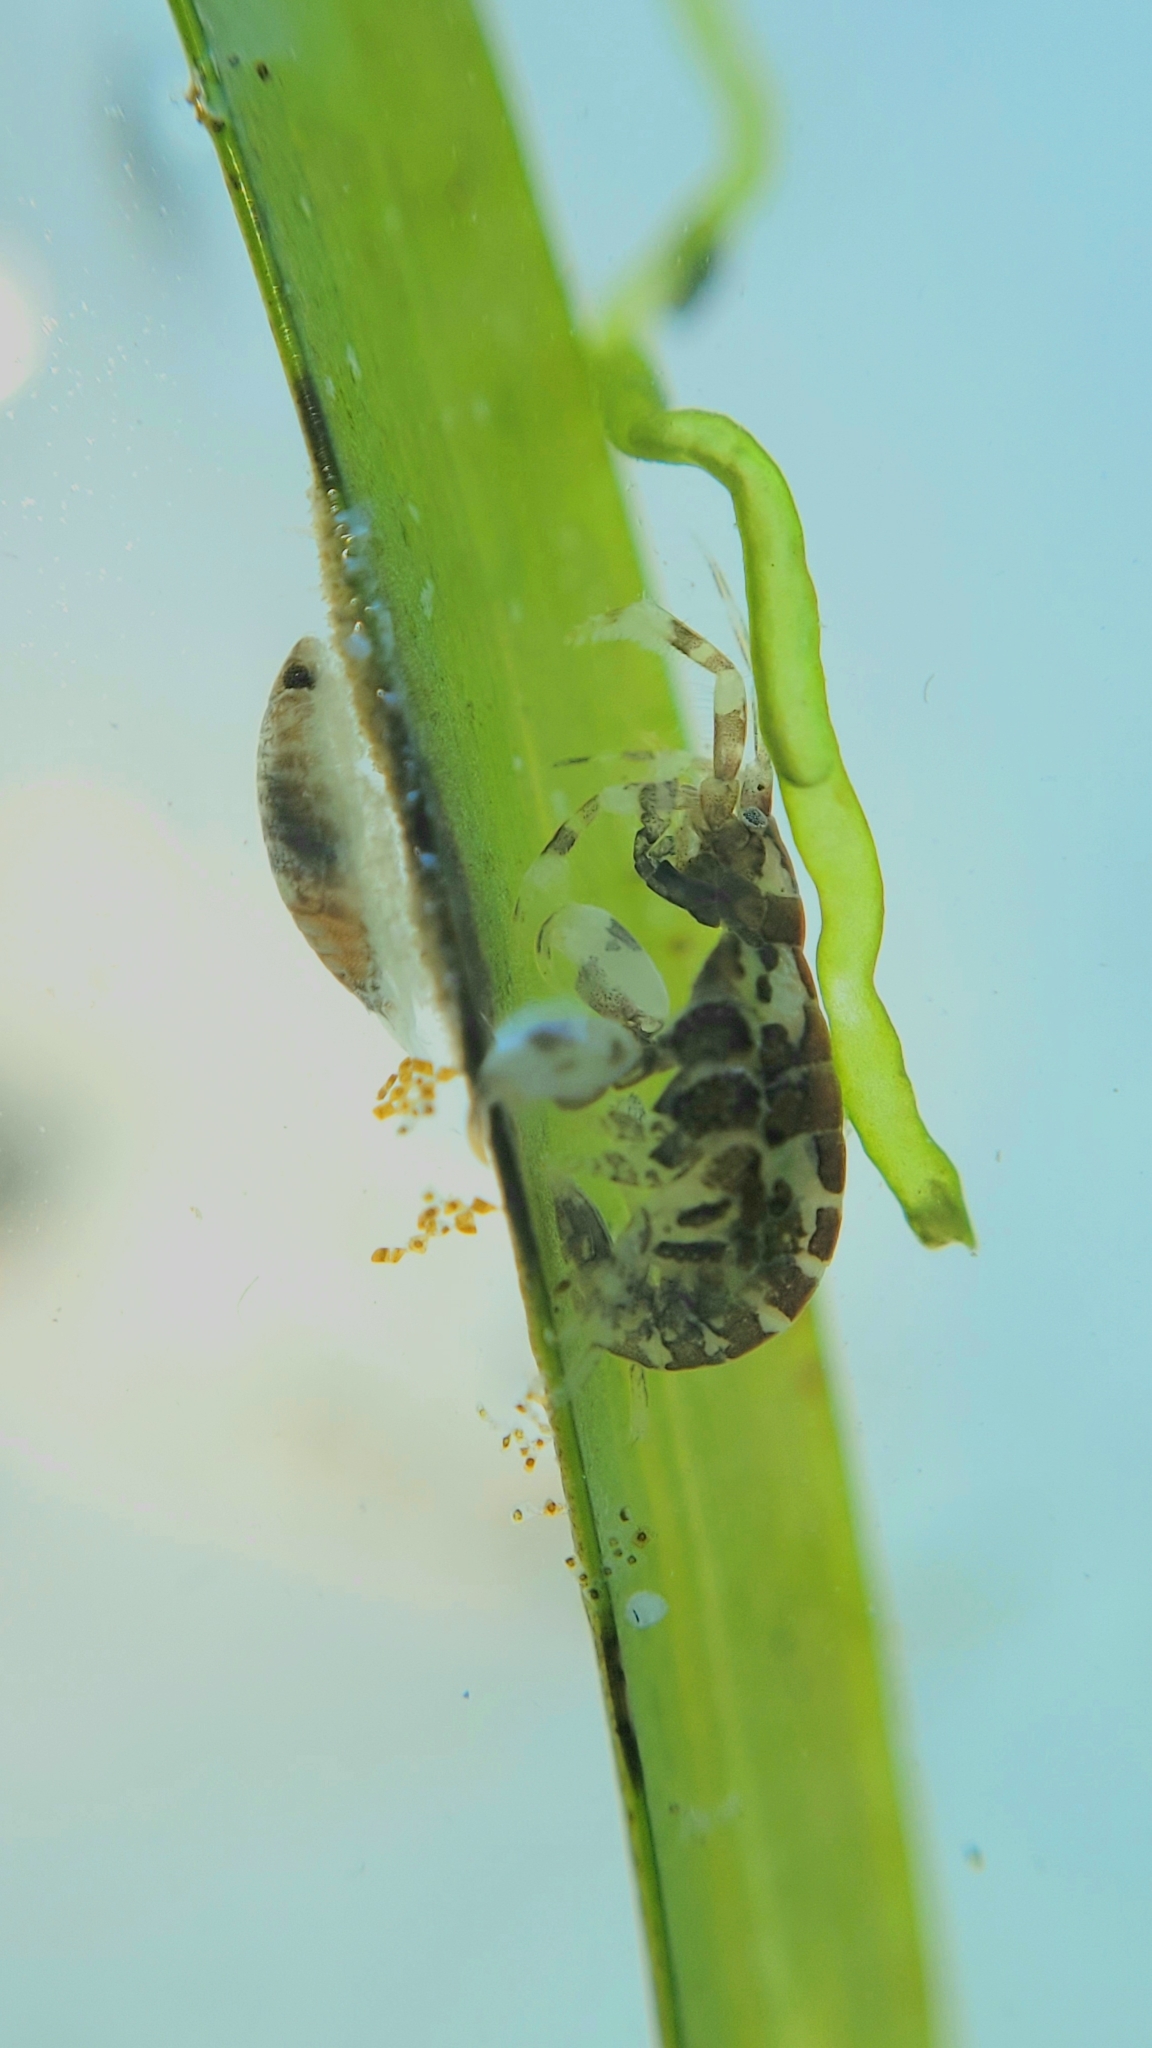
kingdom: Animalia
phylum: Arthropoda
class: Malacostraca
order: Amphipoda
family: Ischyroceridae
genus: Jassa
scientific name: Jassa marmorata
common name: Tube dwelling amphipod
